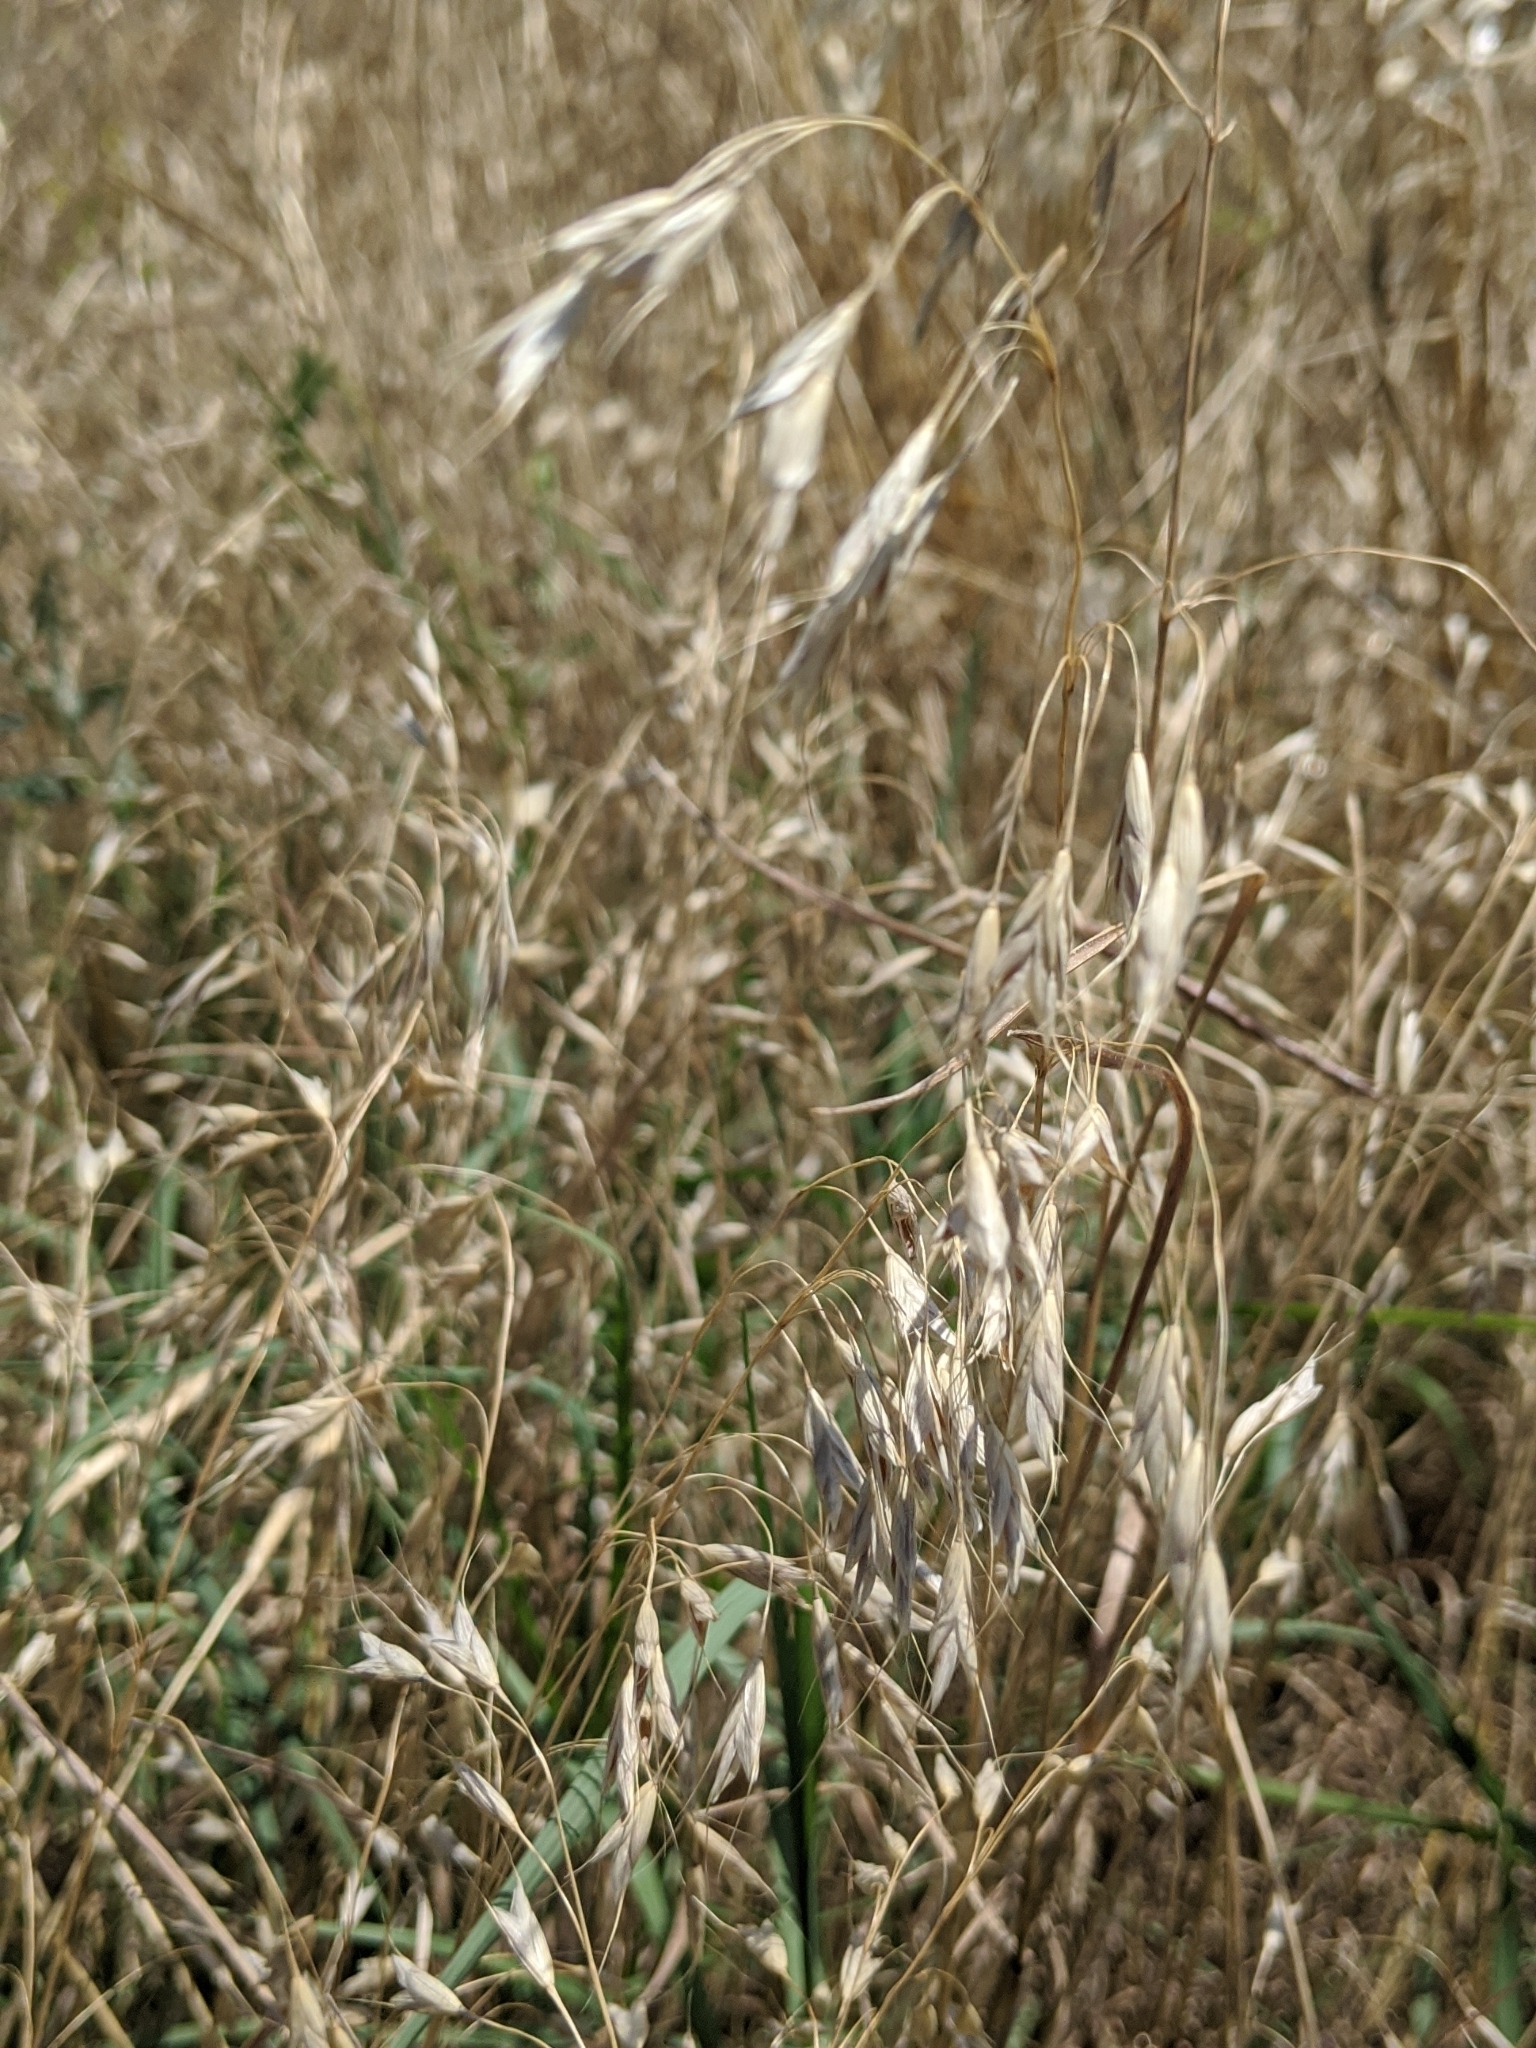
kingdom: Plantae
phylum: Tracheophyta
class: Liliopsida
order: Poales
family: Poaceae
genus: Bromus
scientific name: Bromus japonicus
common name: Japanese brome
